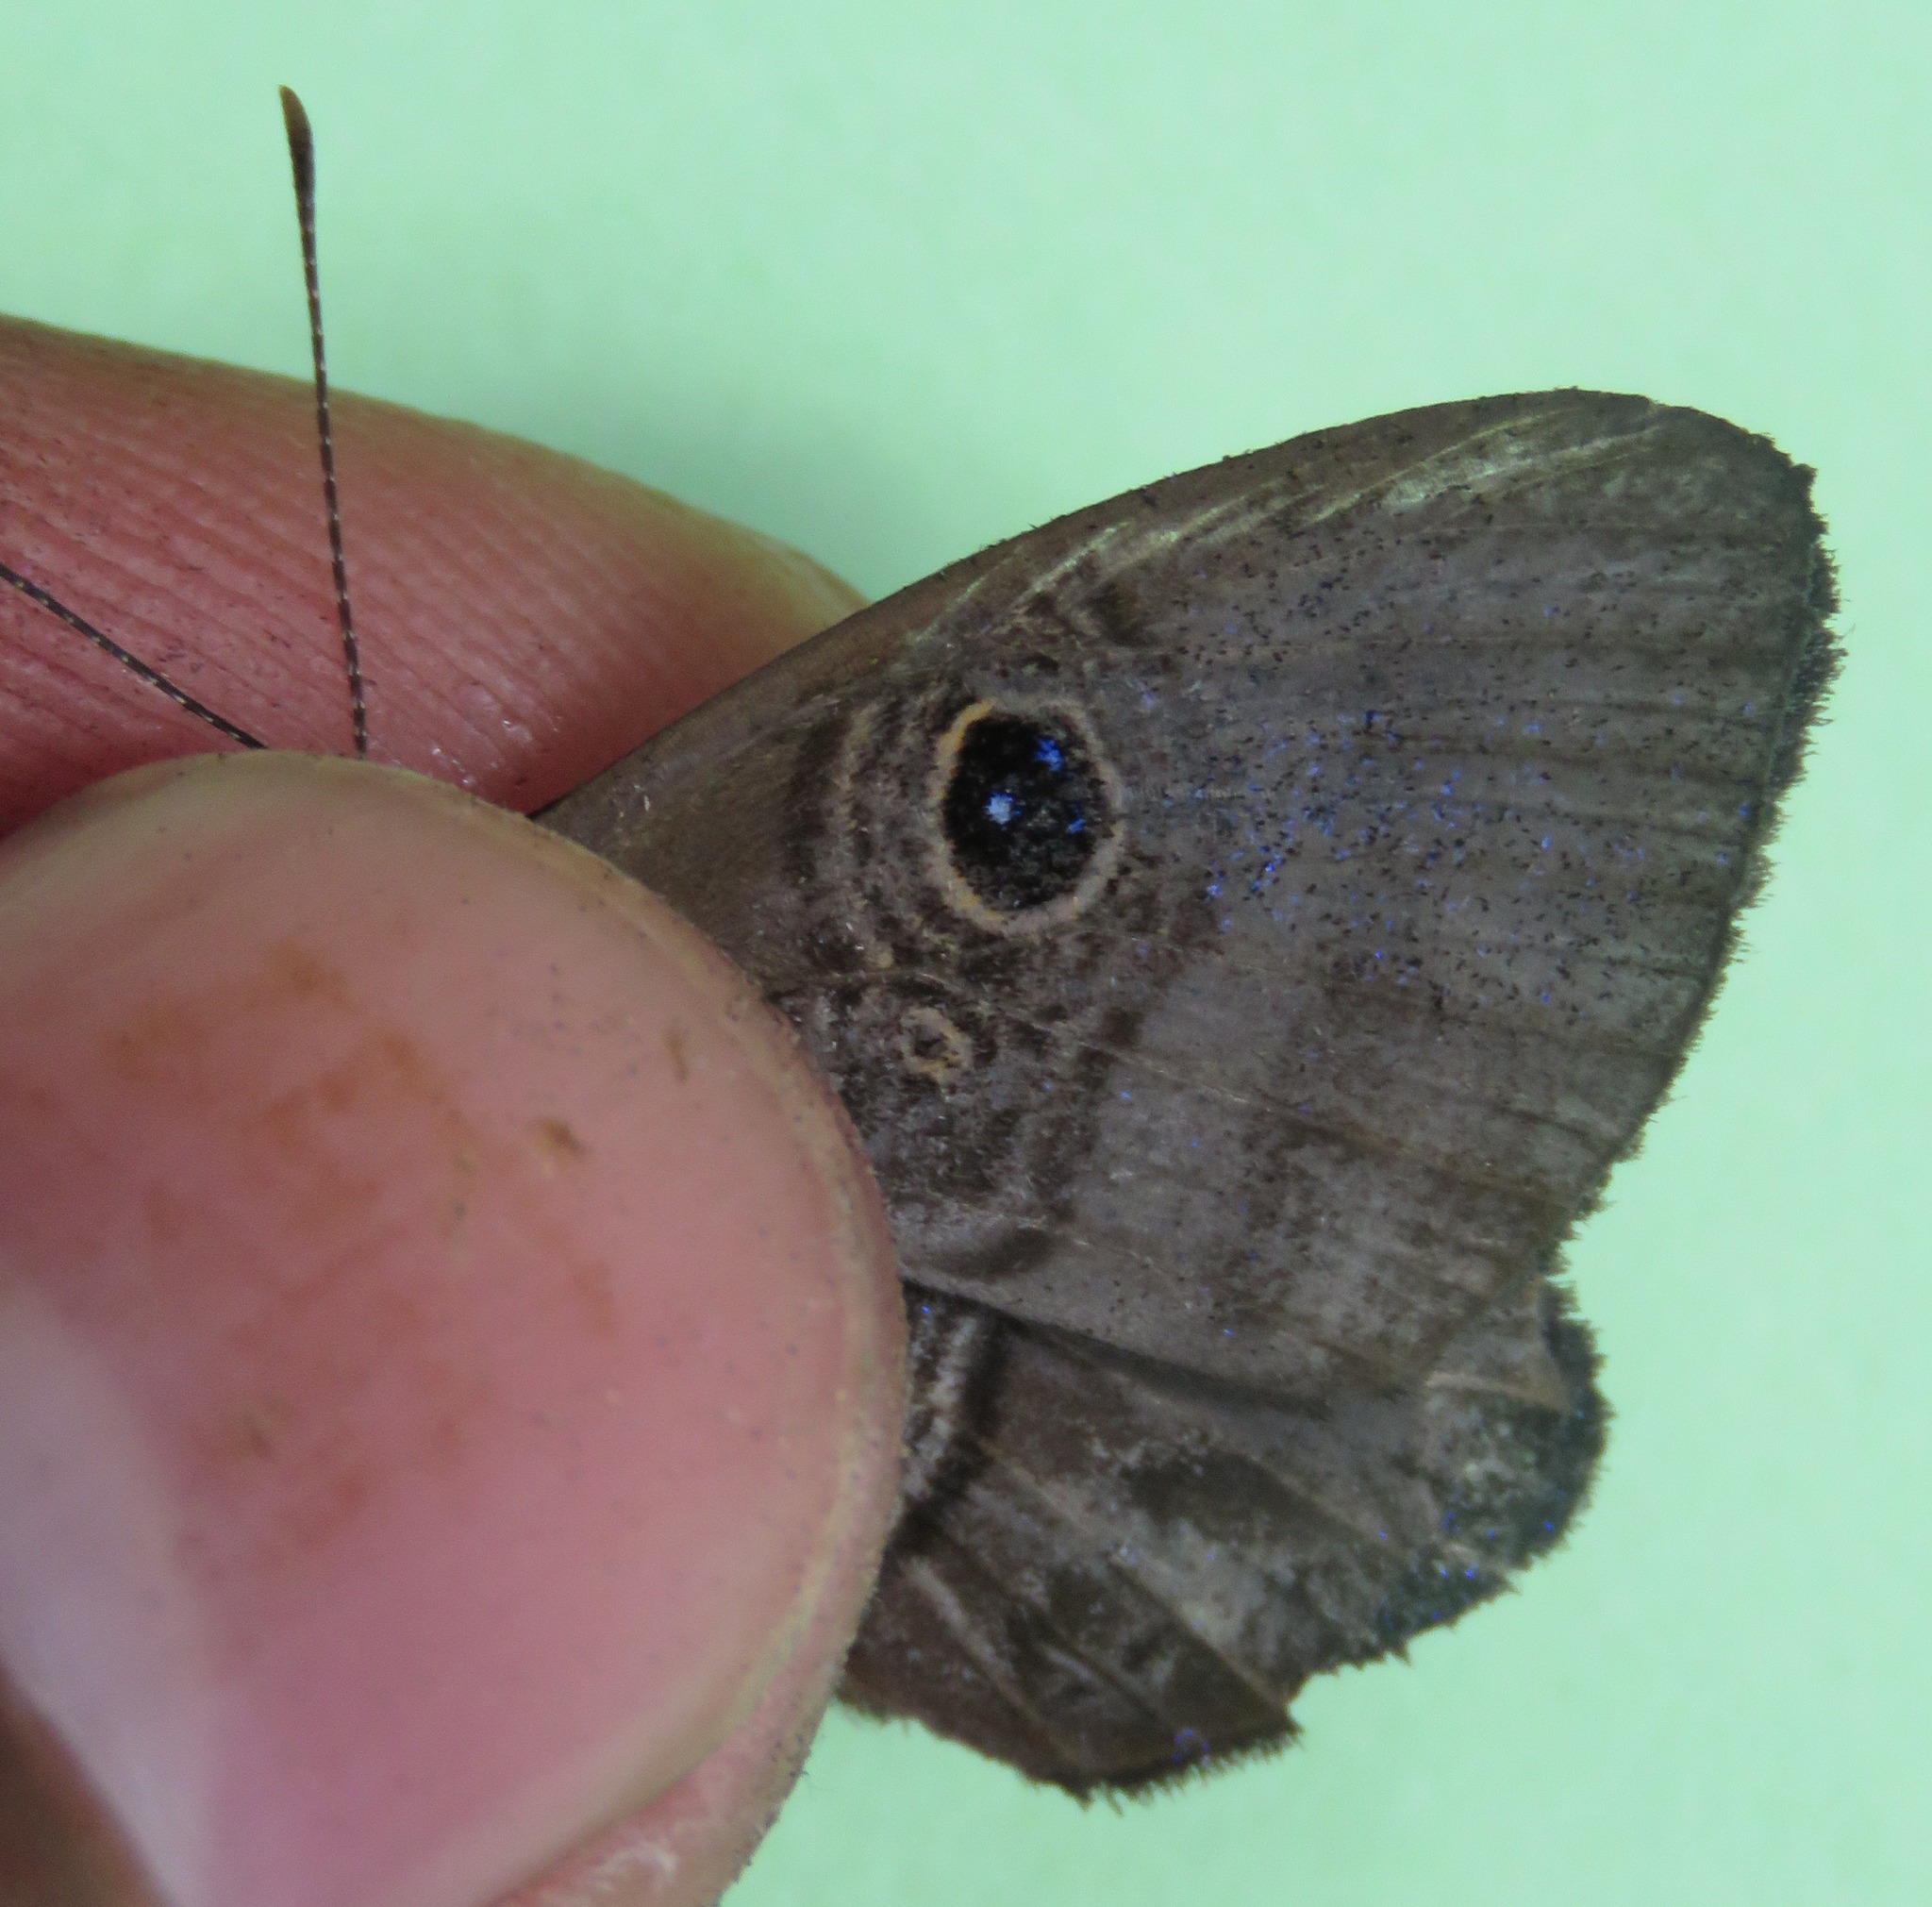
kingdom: Animalia
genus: Mesosemia
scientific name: Mesosemia lamachus
